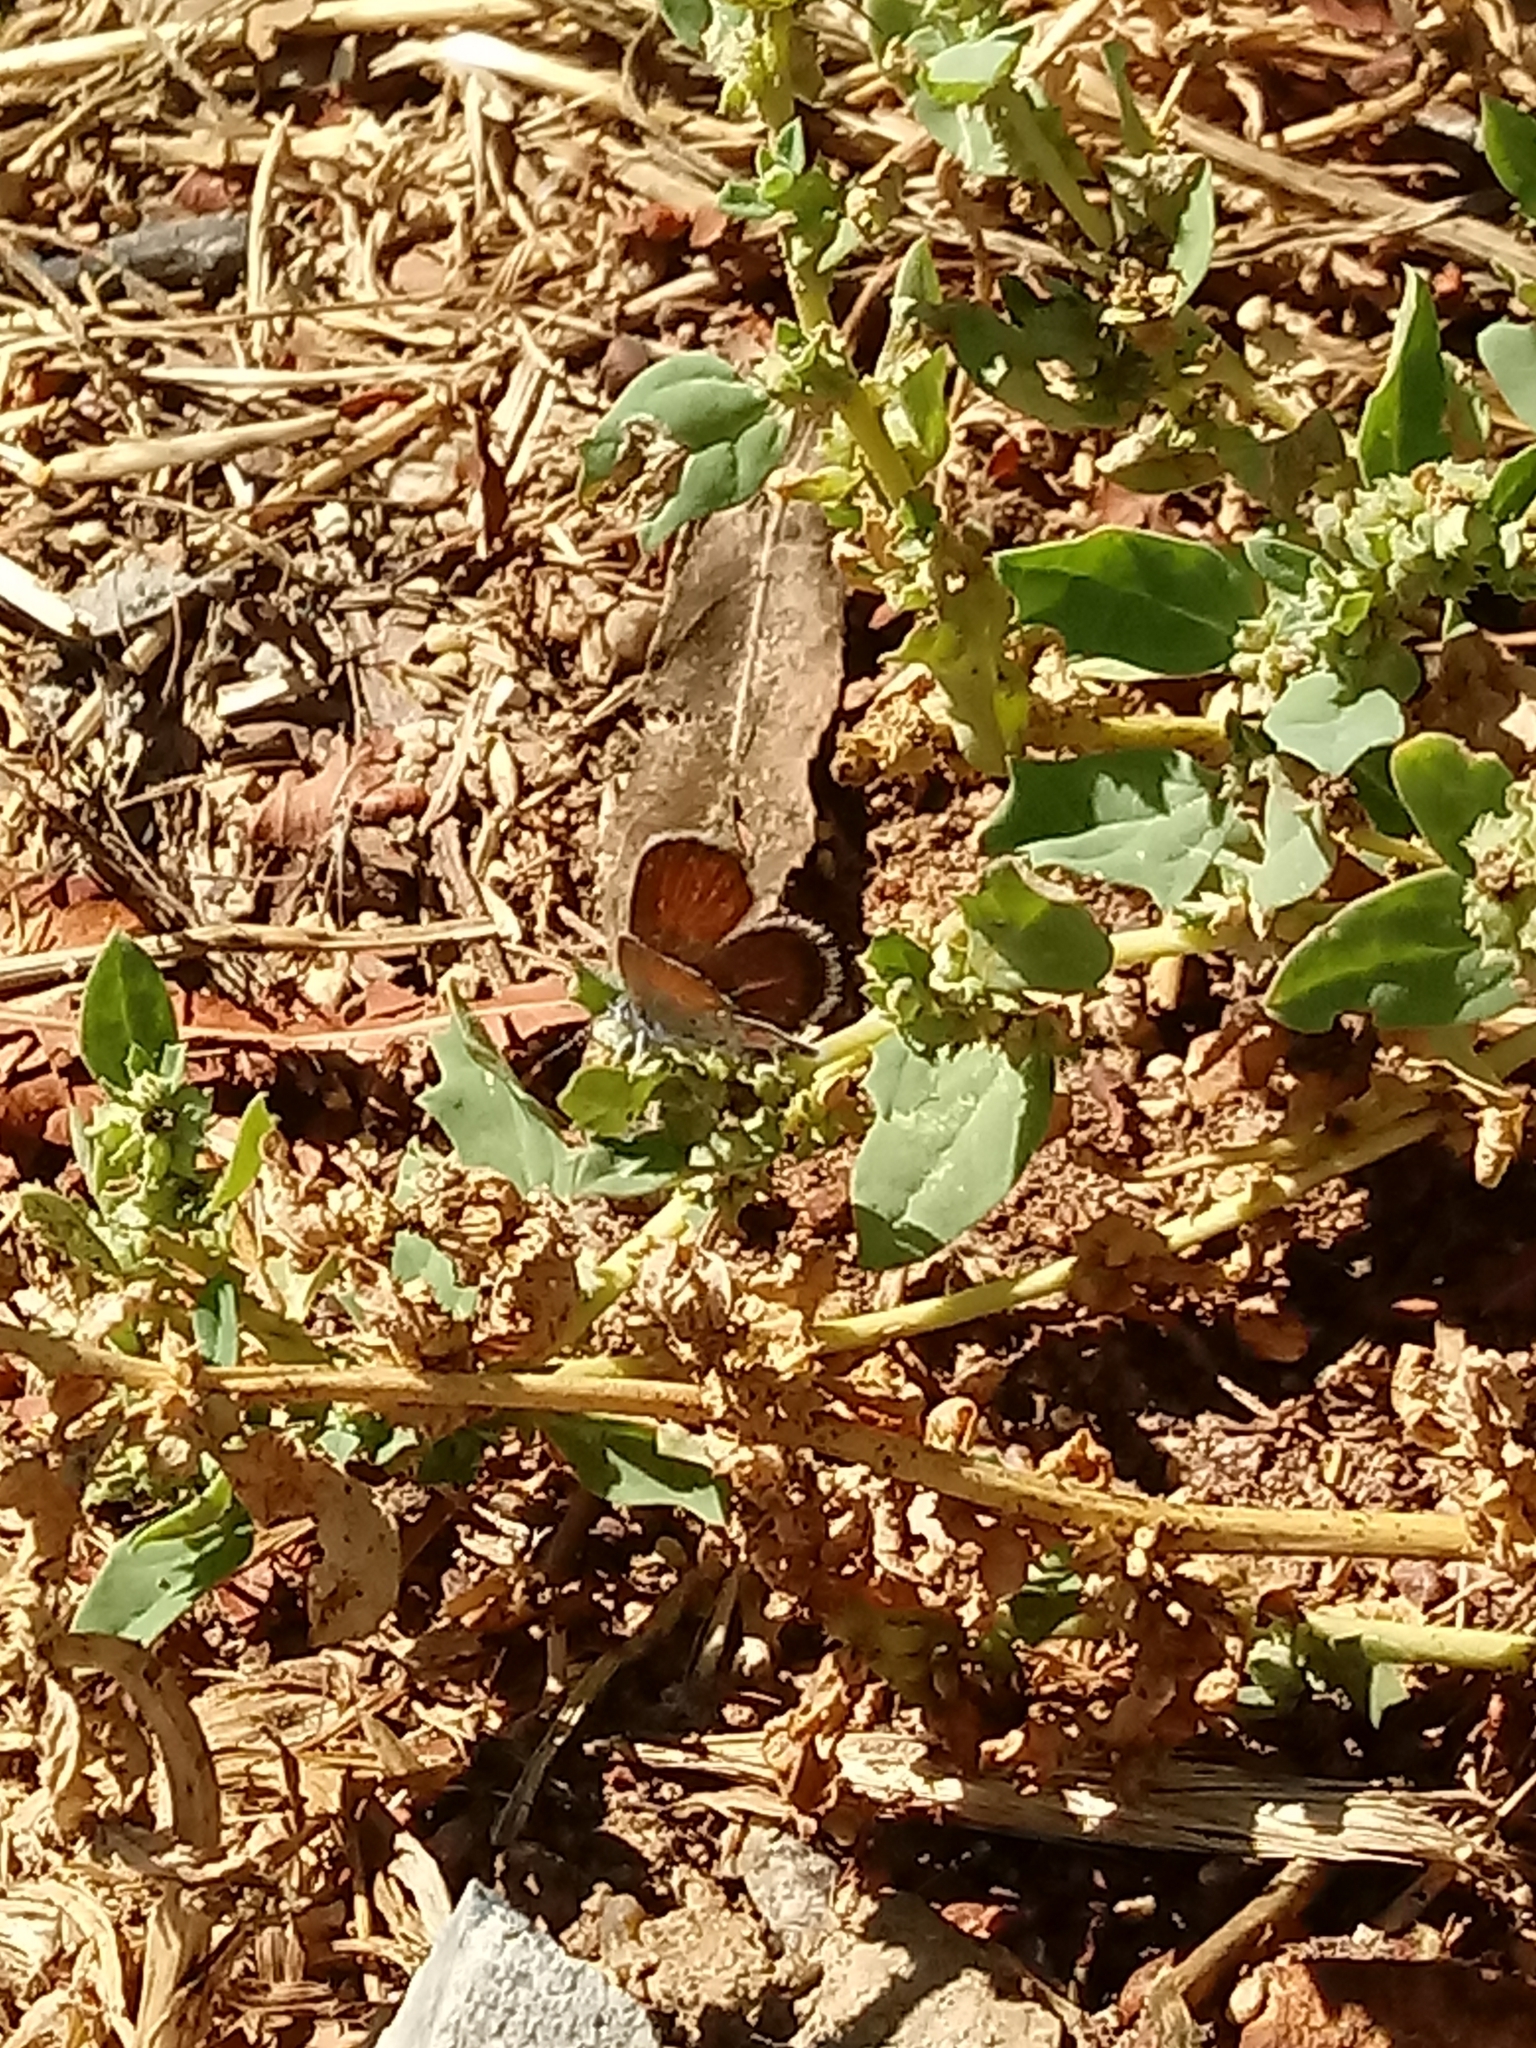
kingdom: Animalia
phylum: Arthropoda
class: Insecta
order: Lepidoptera
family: Lycaenidae
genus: Brephidium
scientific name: Brephidium exilis
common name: Pygmy blue
